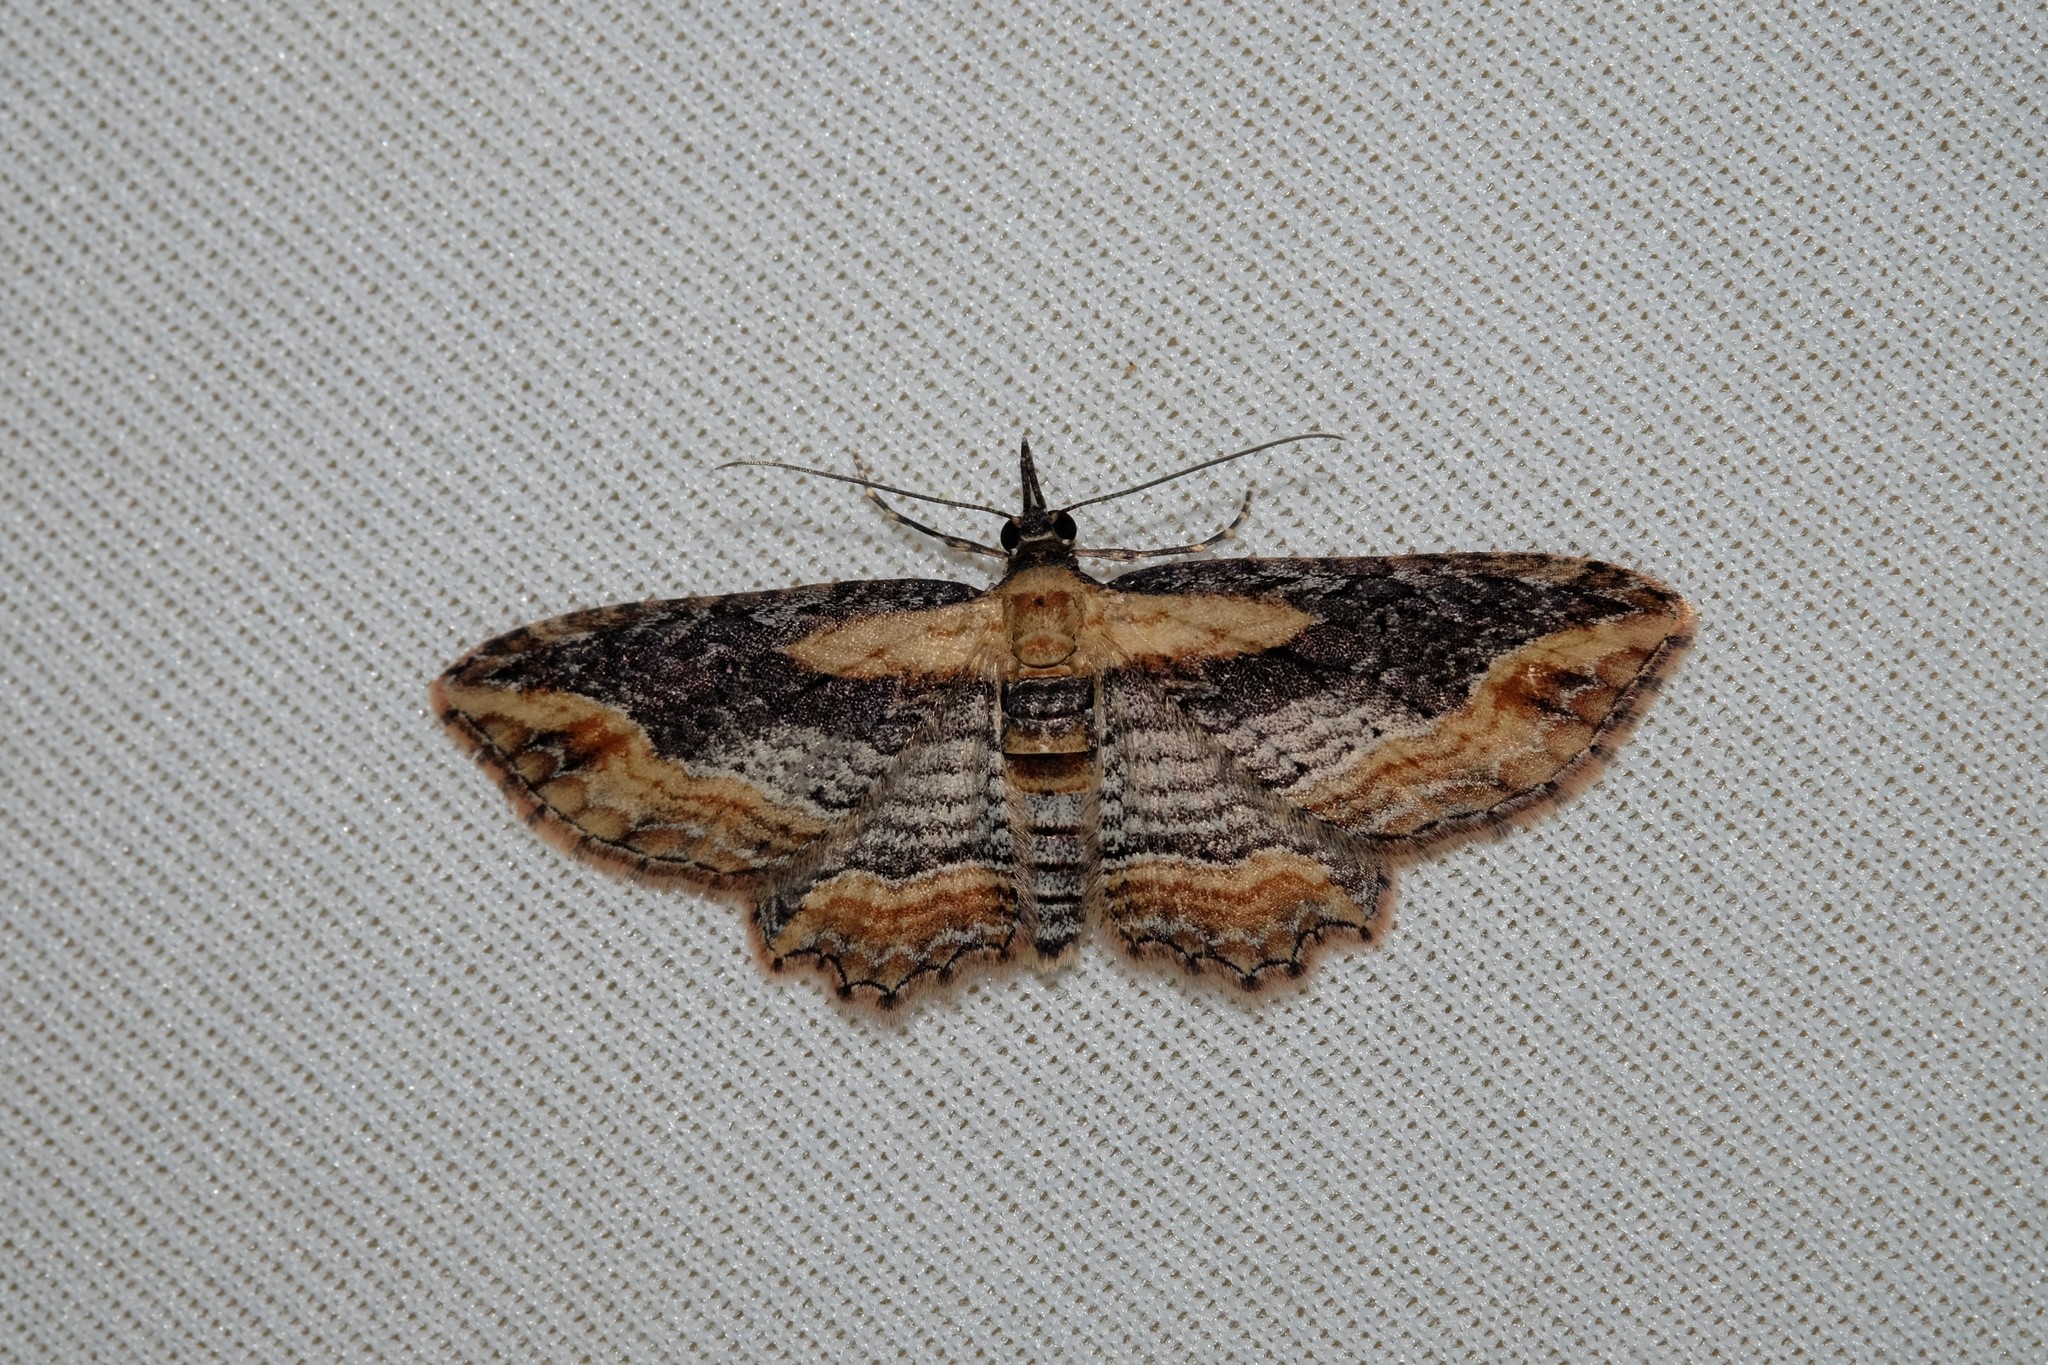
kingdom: Animalia
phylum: Arthropoda
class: Insecta
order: Lepidoptera
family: Geometridae
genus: Chloroclystis
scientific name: Chloroclystis filata
